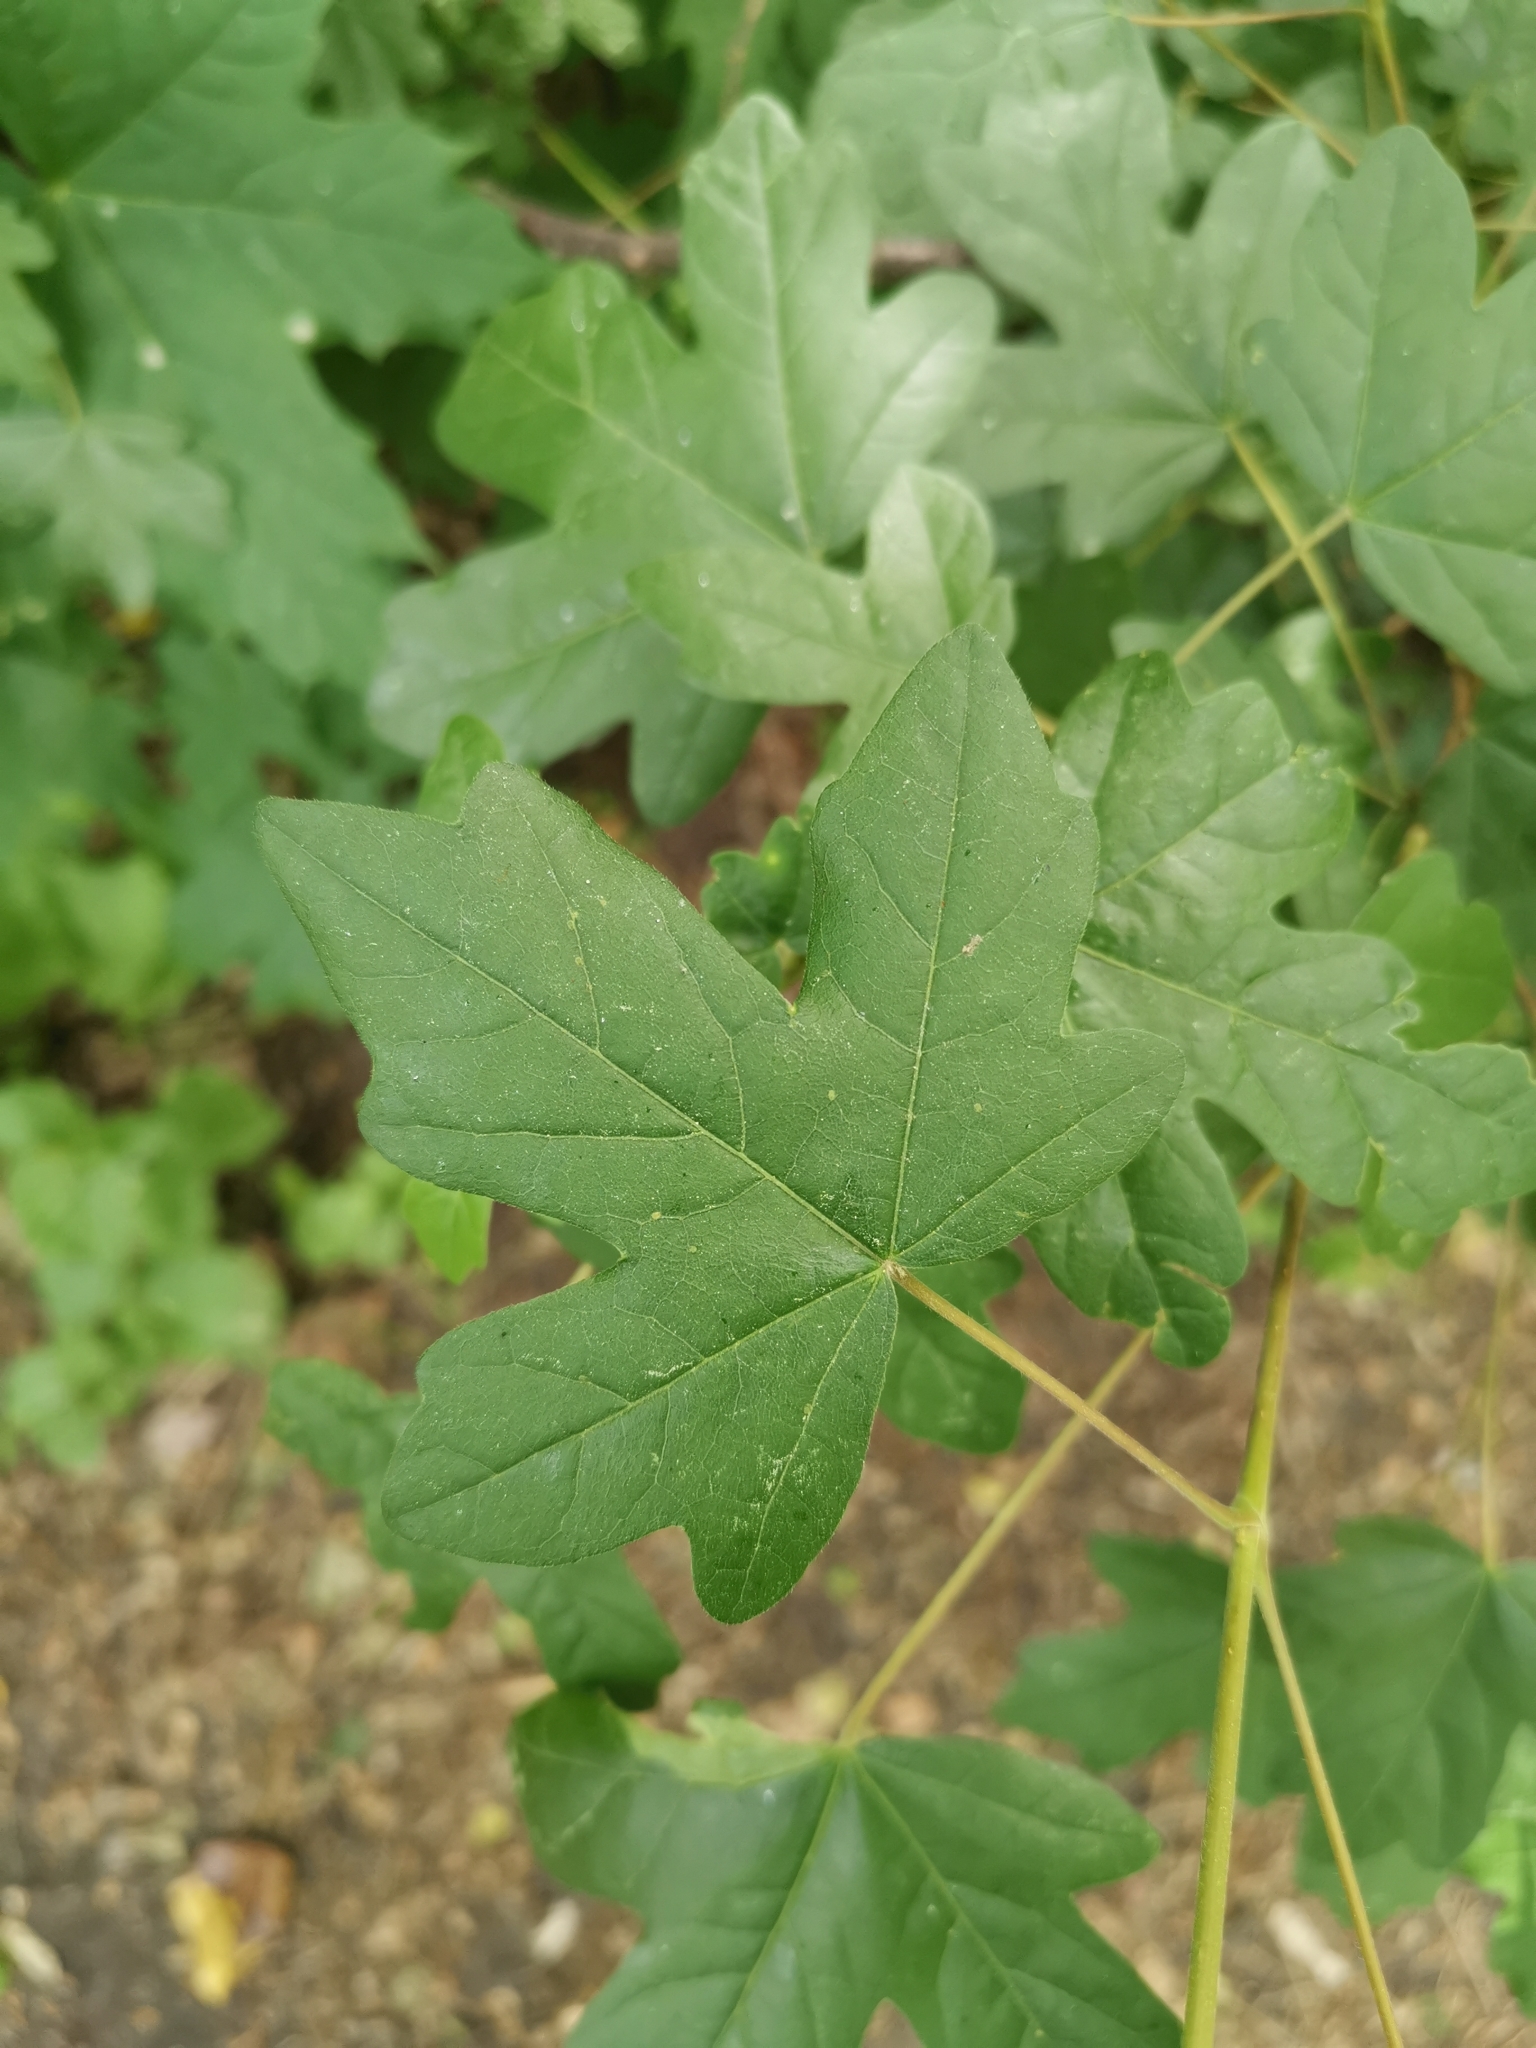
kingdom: Plantae
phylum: Tracheophyta
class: Magnoliopsida
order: Sapindales
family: Sapindaceae
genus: Acer
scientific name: Acer campestre
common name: Field maple
